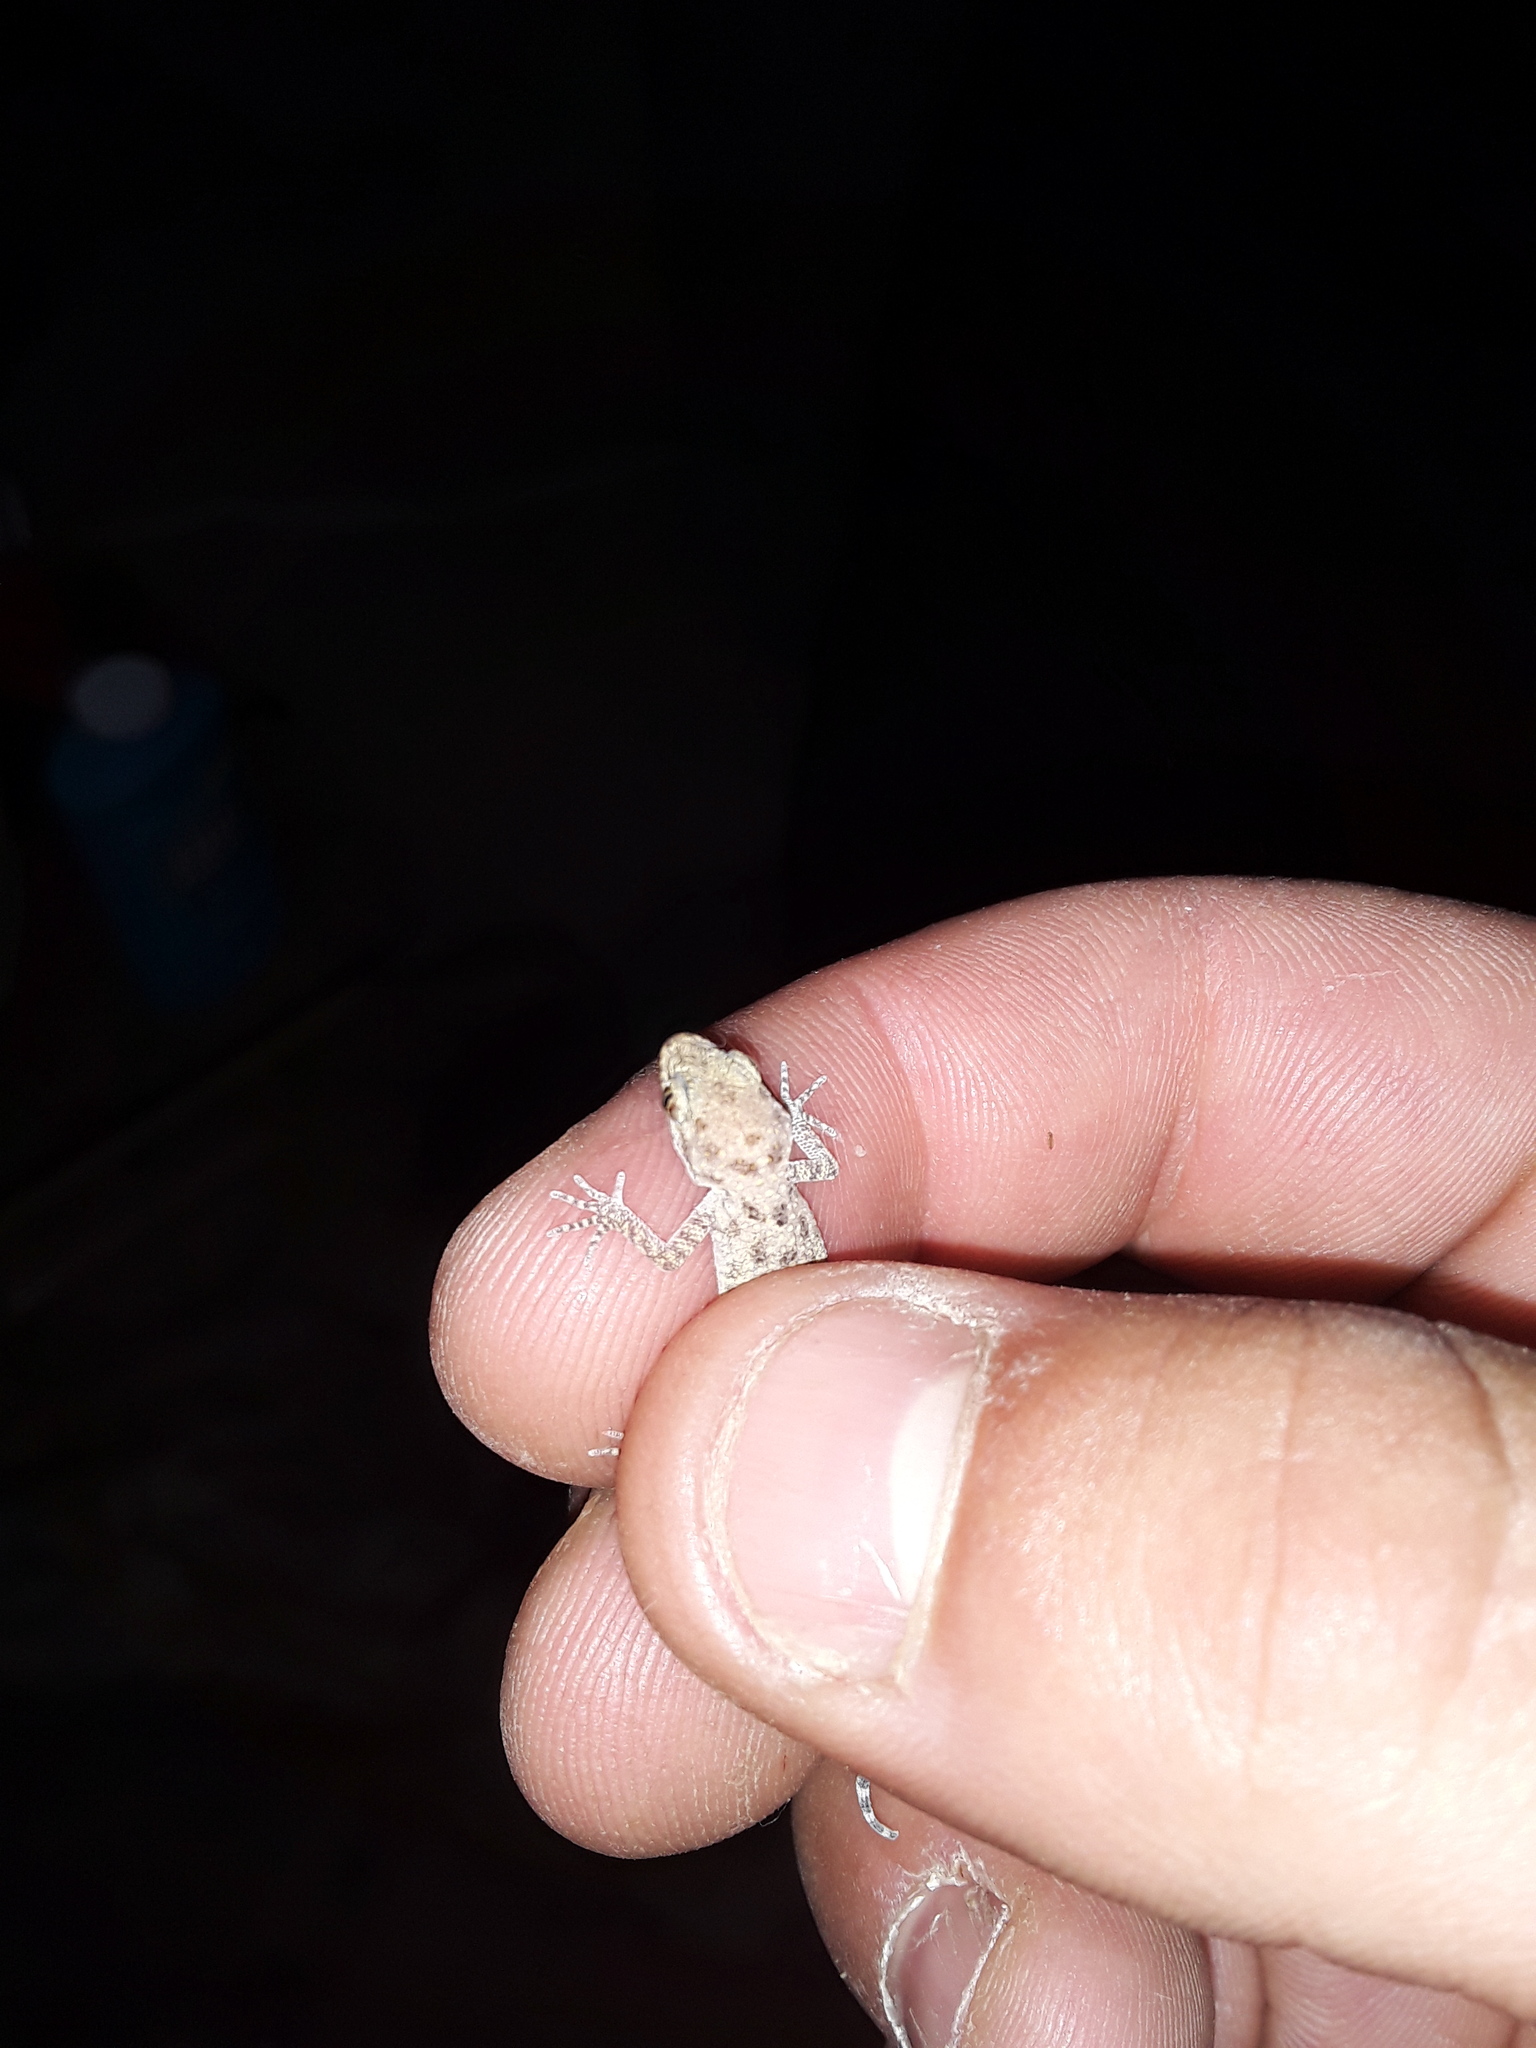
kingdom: Animalia
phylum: Chordata
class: Squamata
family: Gekkonidae
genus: Cyrtopodion
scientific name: Cyrtopodion scabrum
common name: Rough-tailed gecko
